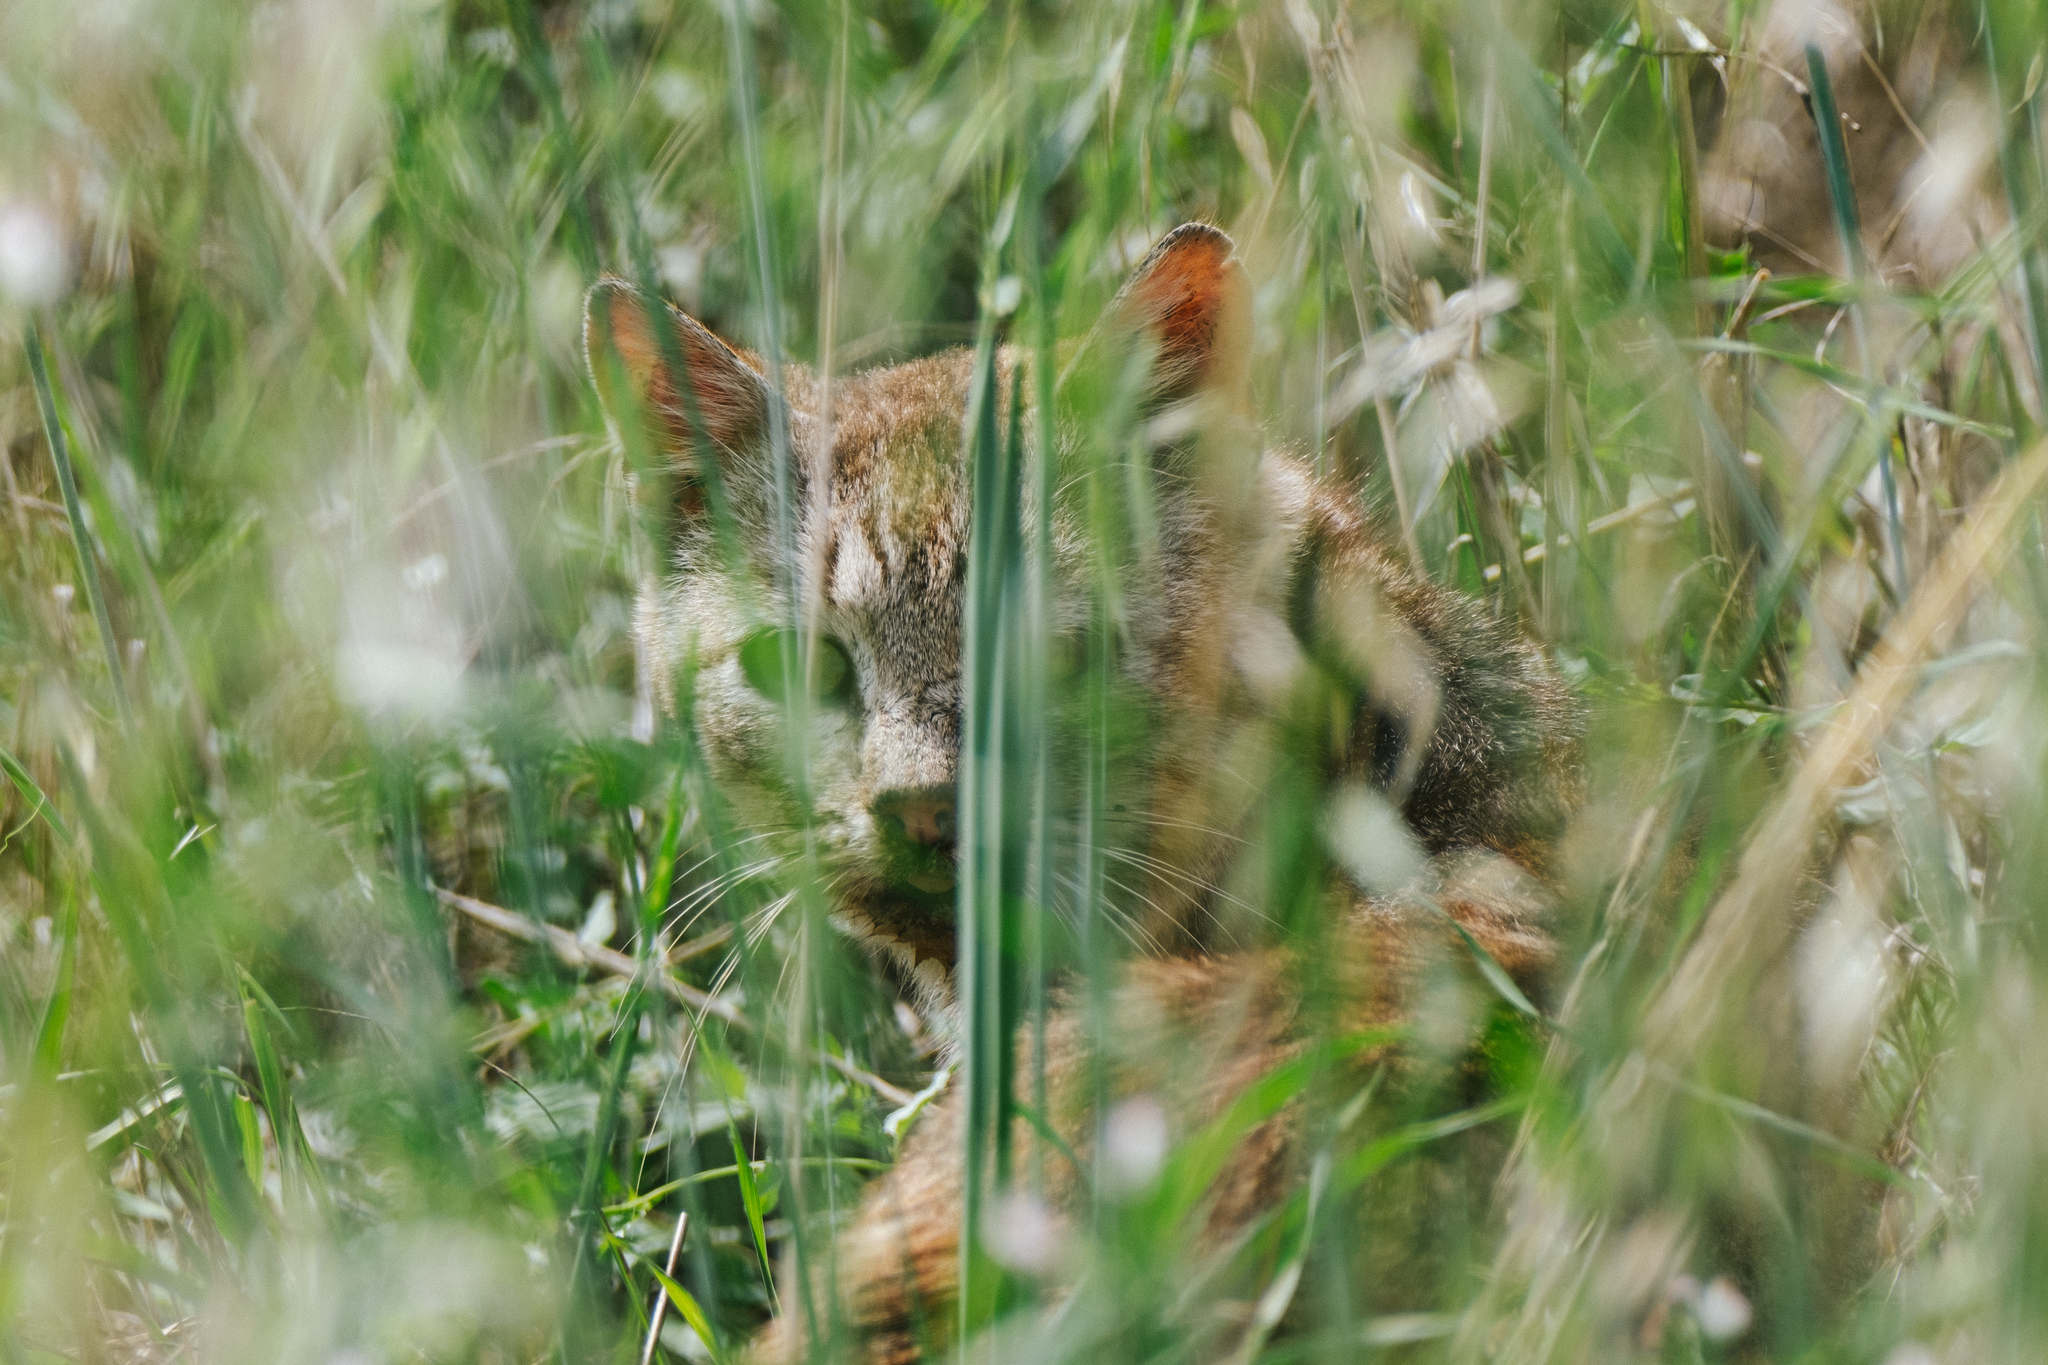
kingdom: Animalia
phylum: Chordata
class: Mammalia
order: Carnivora
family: Felidae
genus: Felis
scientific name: Felis catus
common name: Domestic cat
